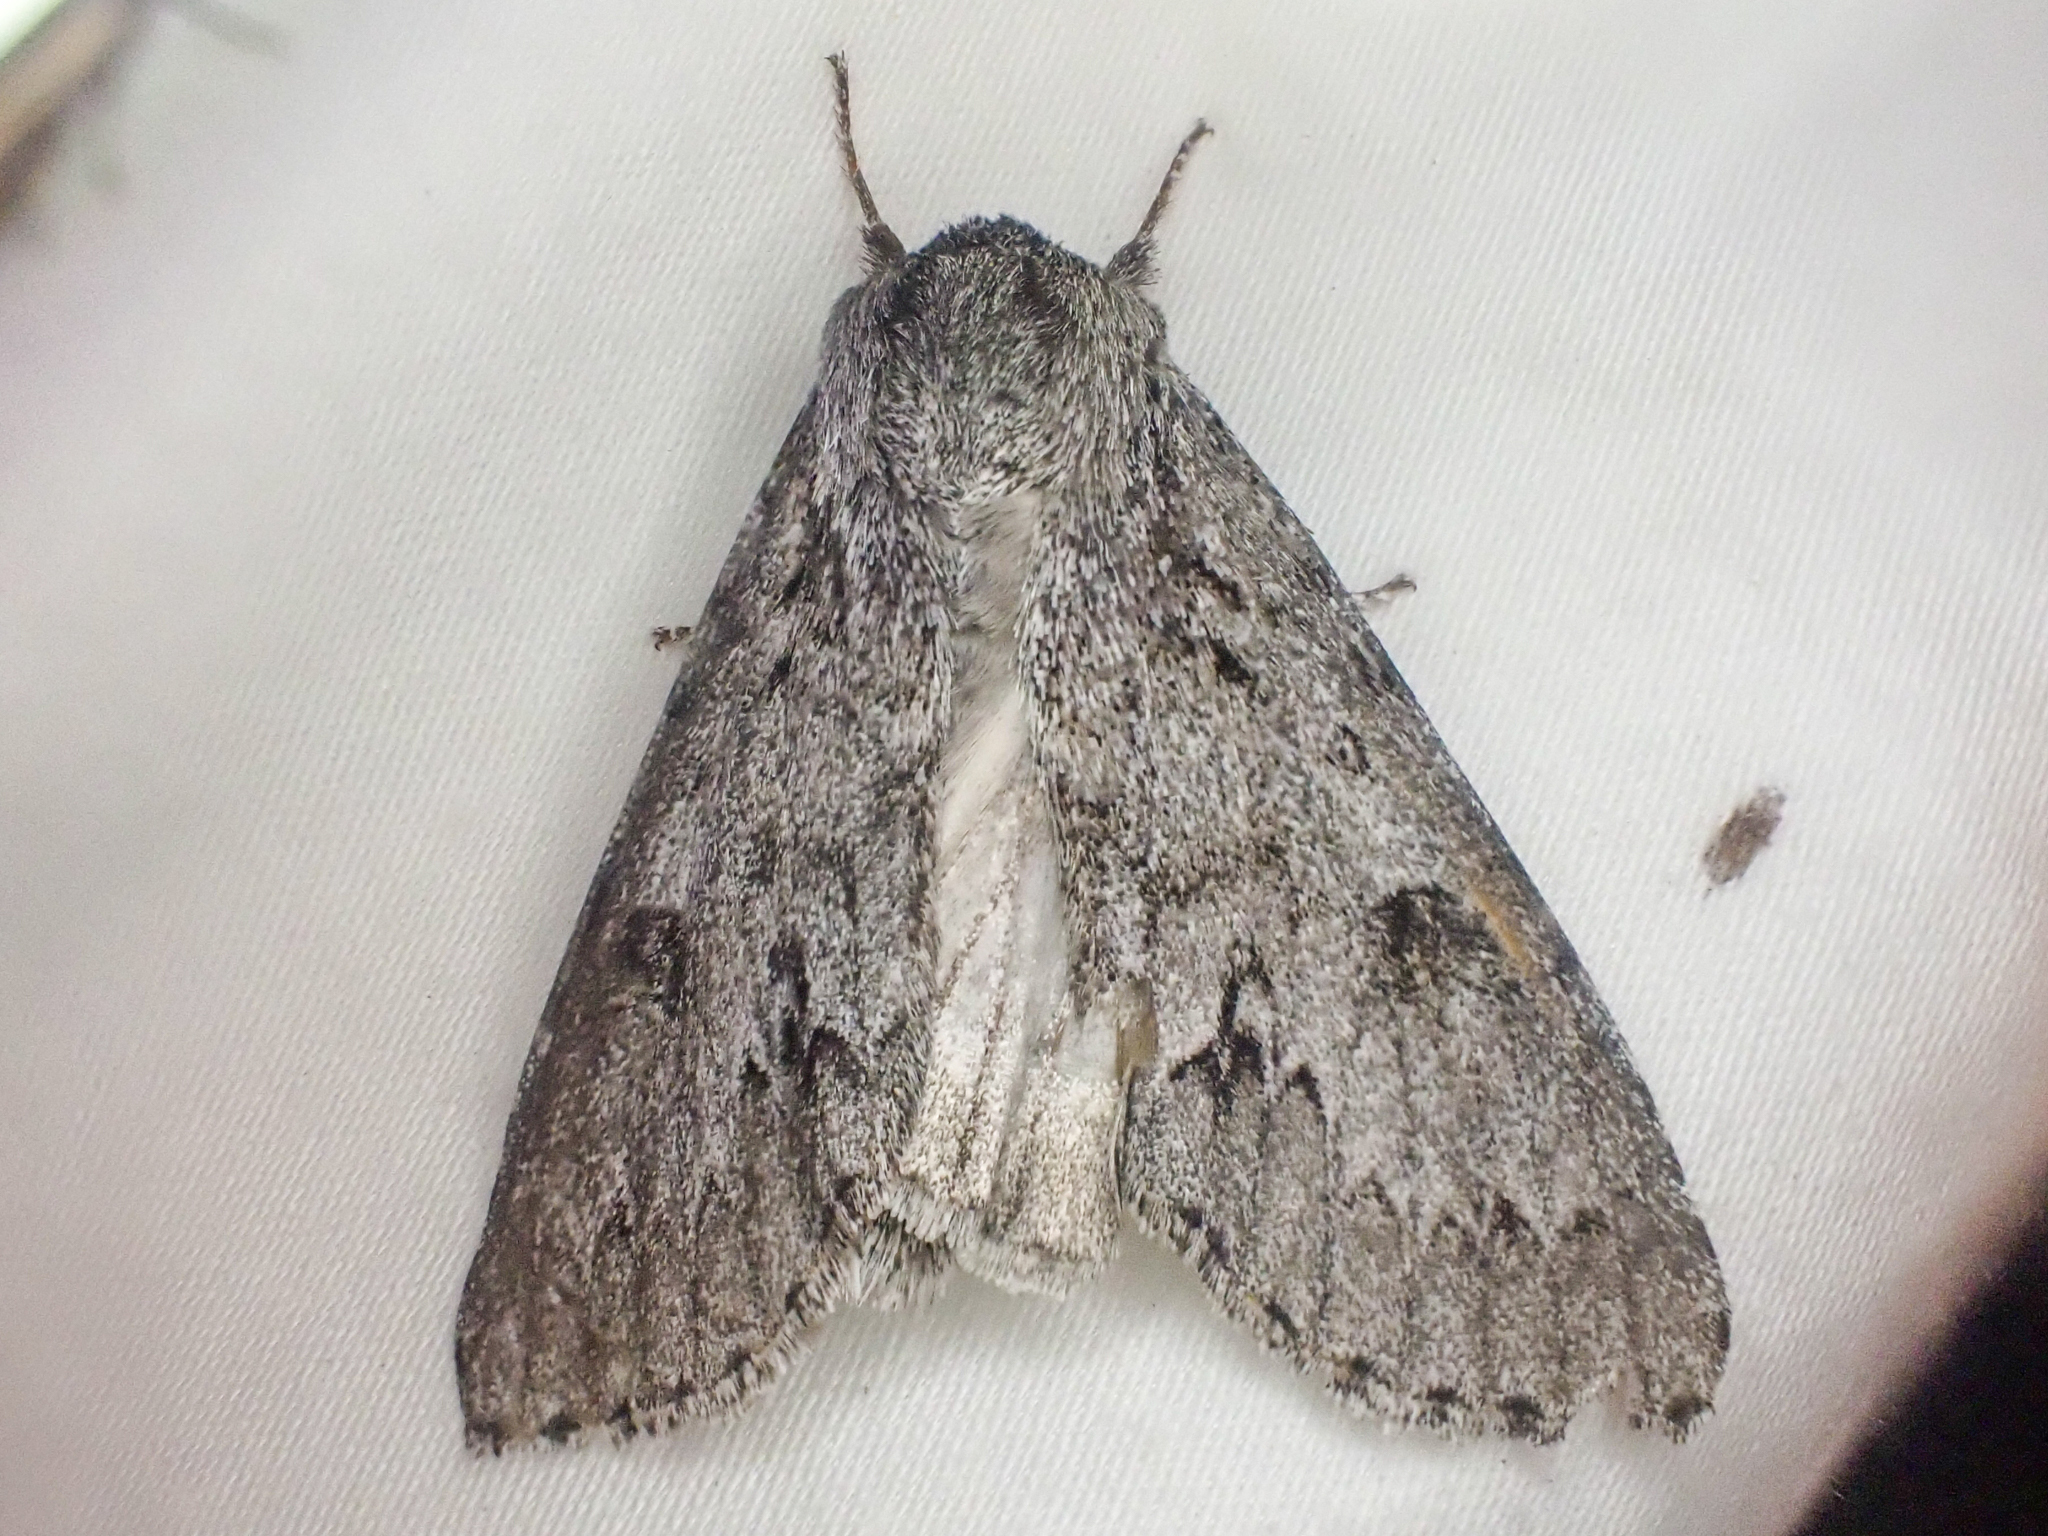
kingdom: Animalia
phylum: Arthropoda
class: Insecta
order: Lepidoptera
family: Noctuidae
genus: Acronicta
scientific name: Acronicta insita
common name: Large gray dagger
